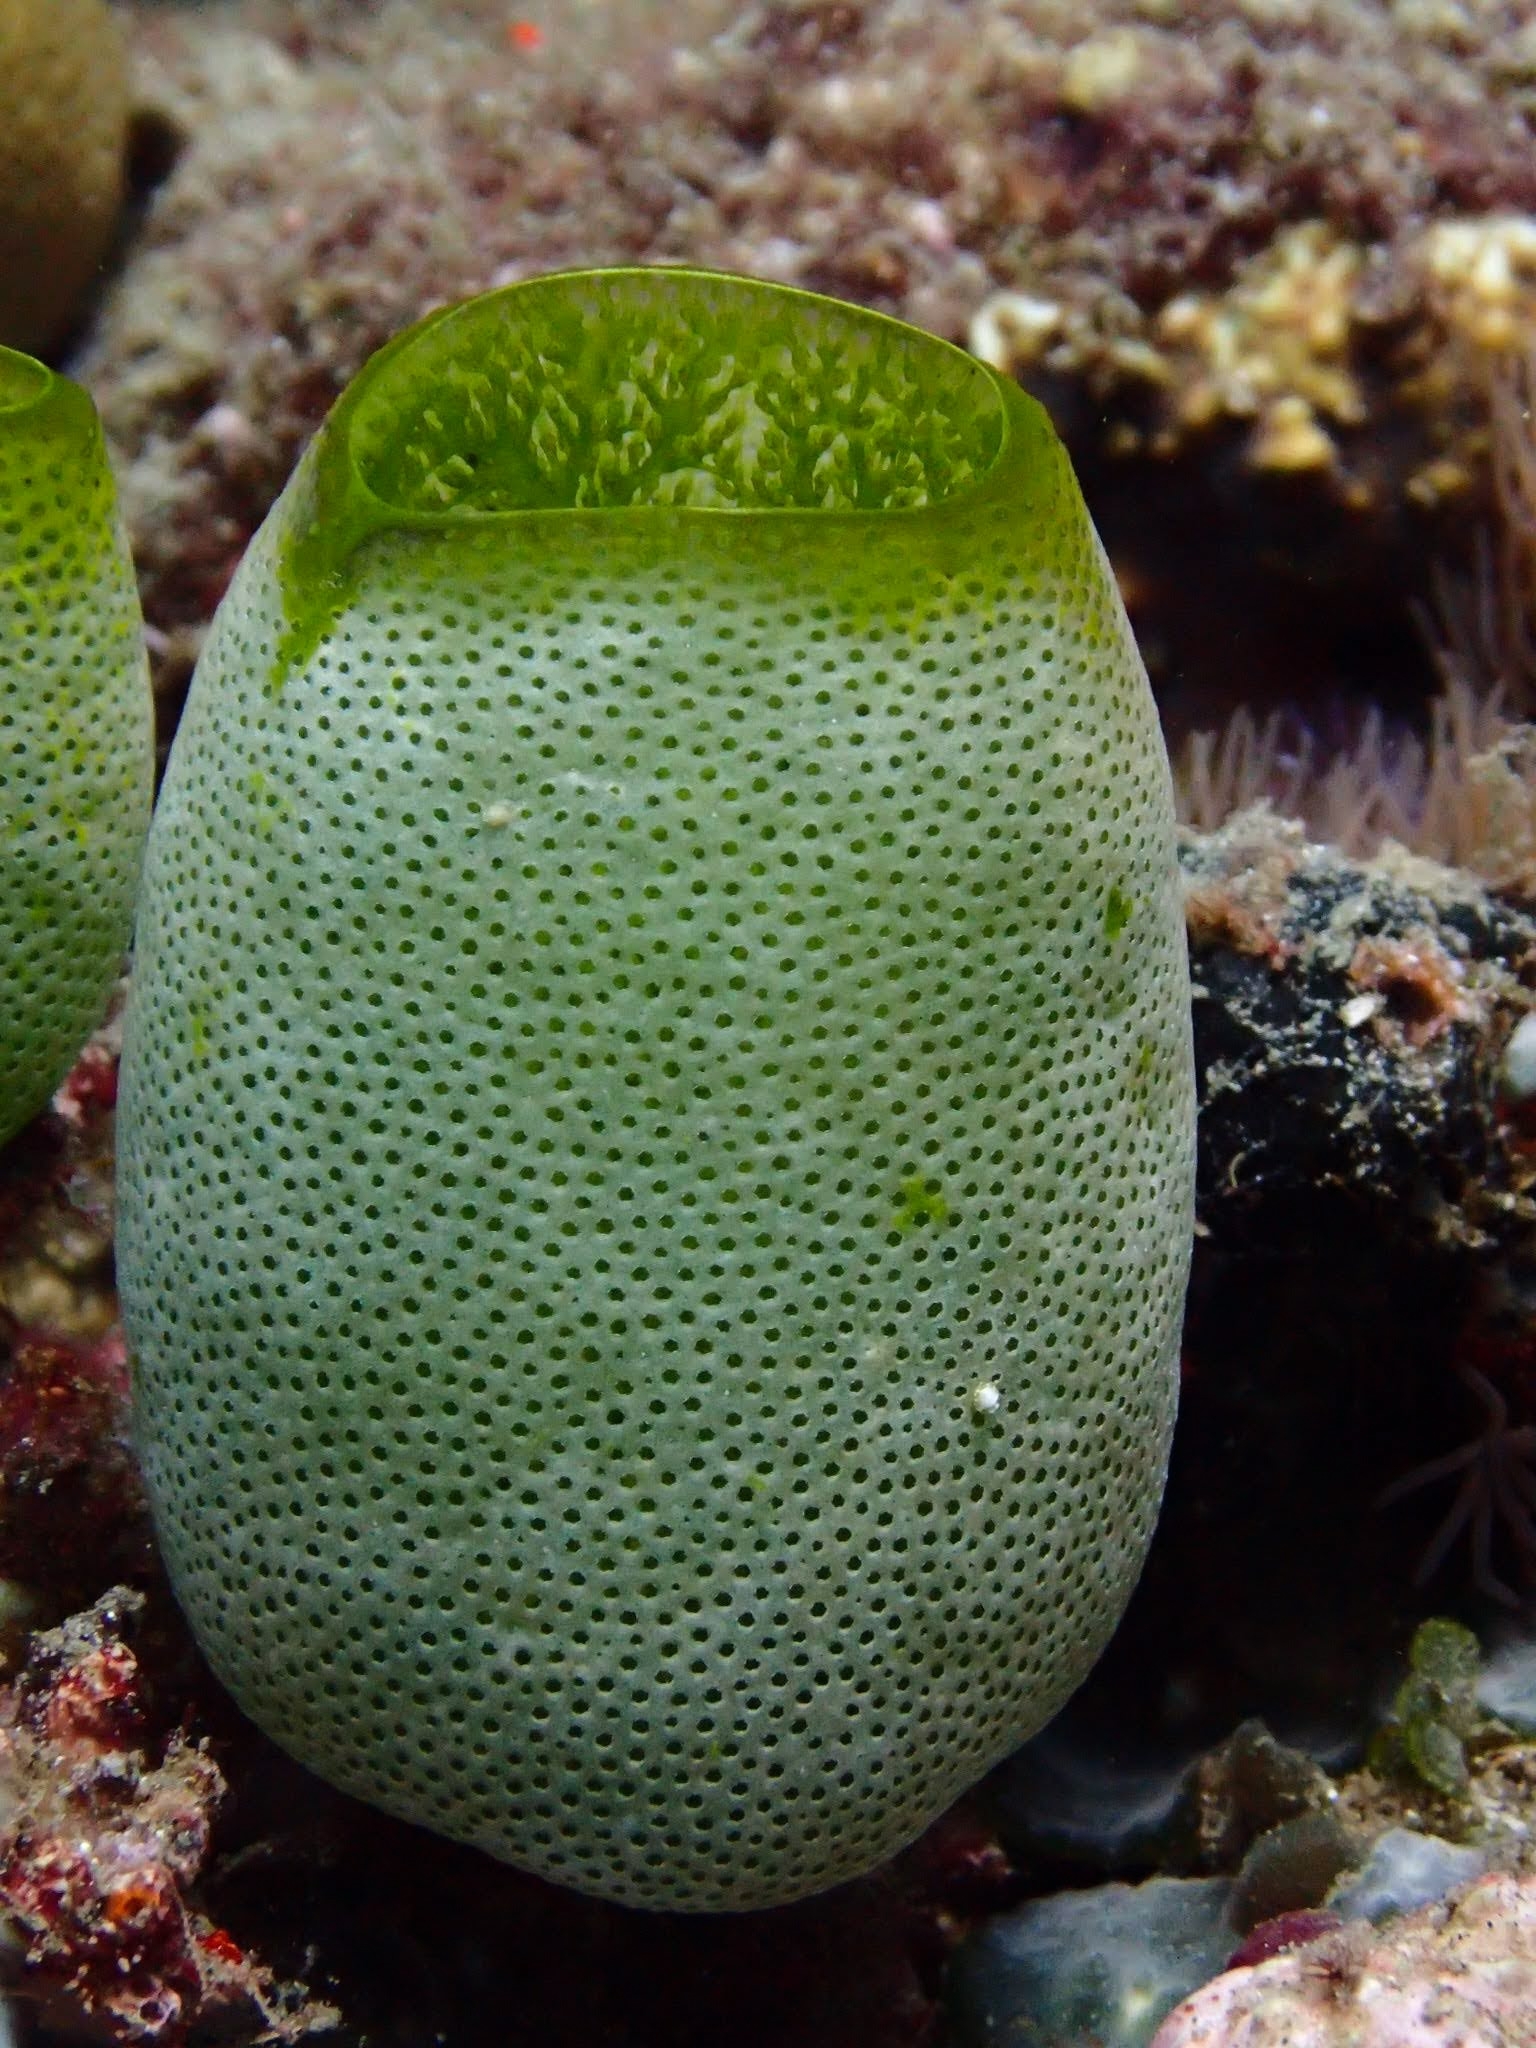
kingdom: Animalia
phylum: Chordata
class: Ascidiacea
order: Aplousobranchia
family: Didemnidae
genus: Didemnum
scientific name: Didemnum molle
